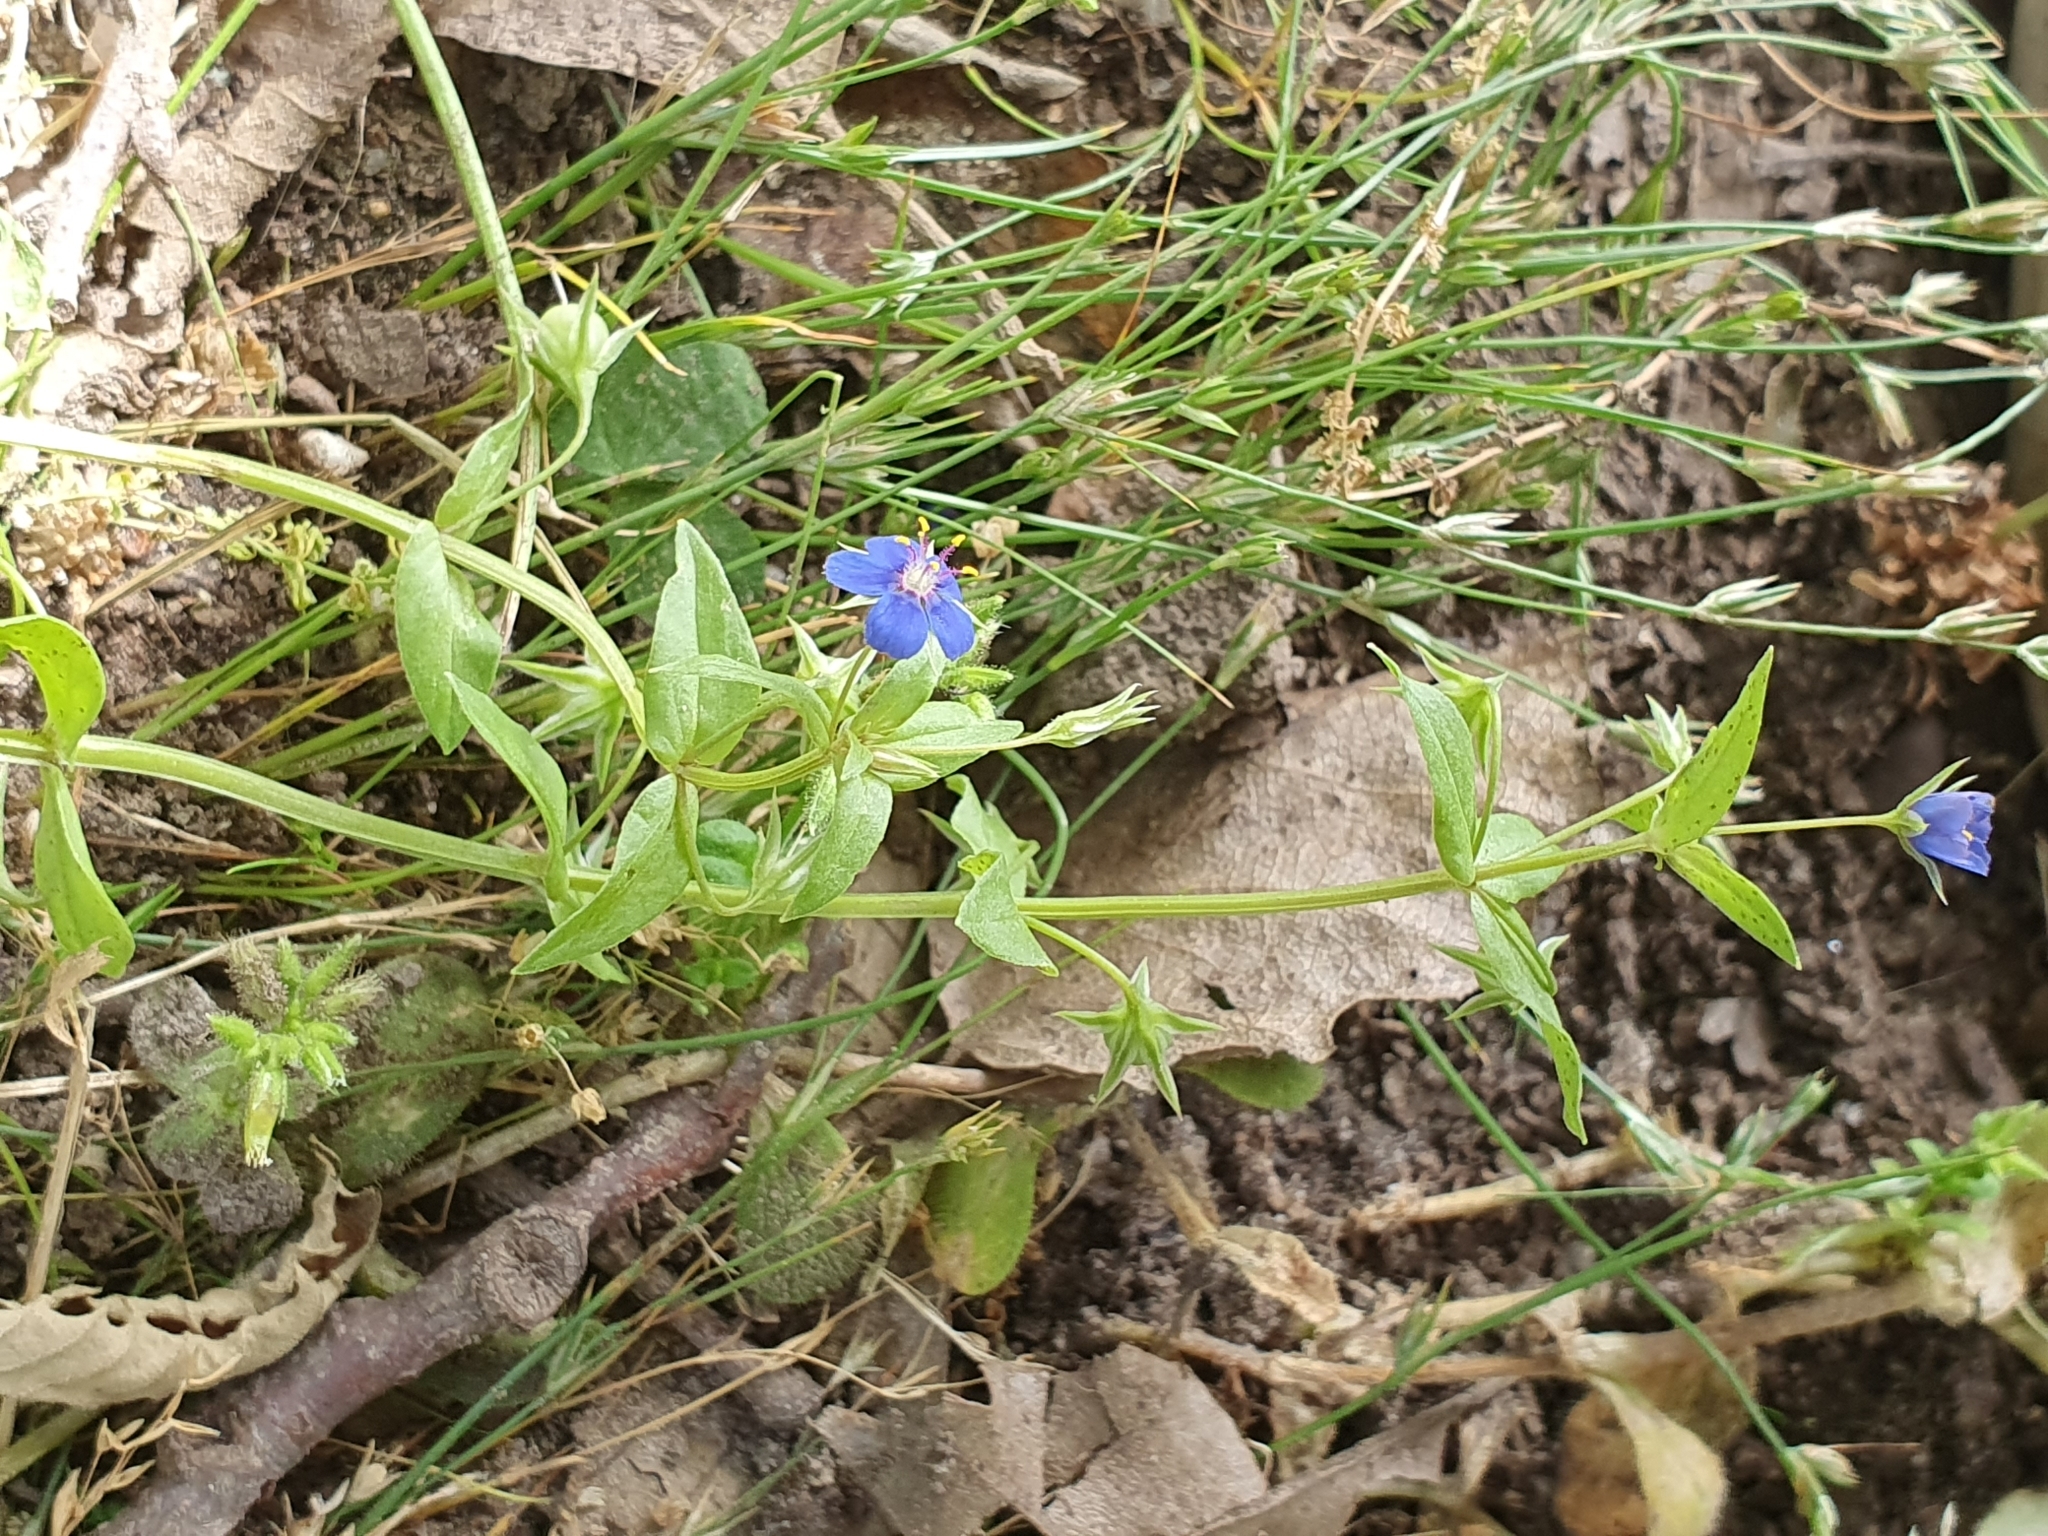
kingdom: Plantae
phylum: Tracheophyta
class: Magnoliopsida
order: Ericales
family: Primulaceae
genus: Lysimachia
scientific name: Lysimachia loeflingii
